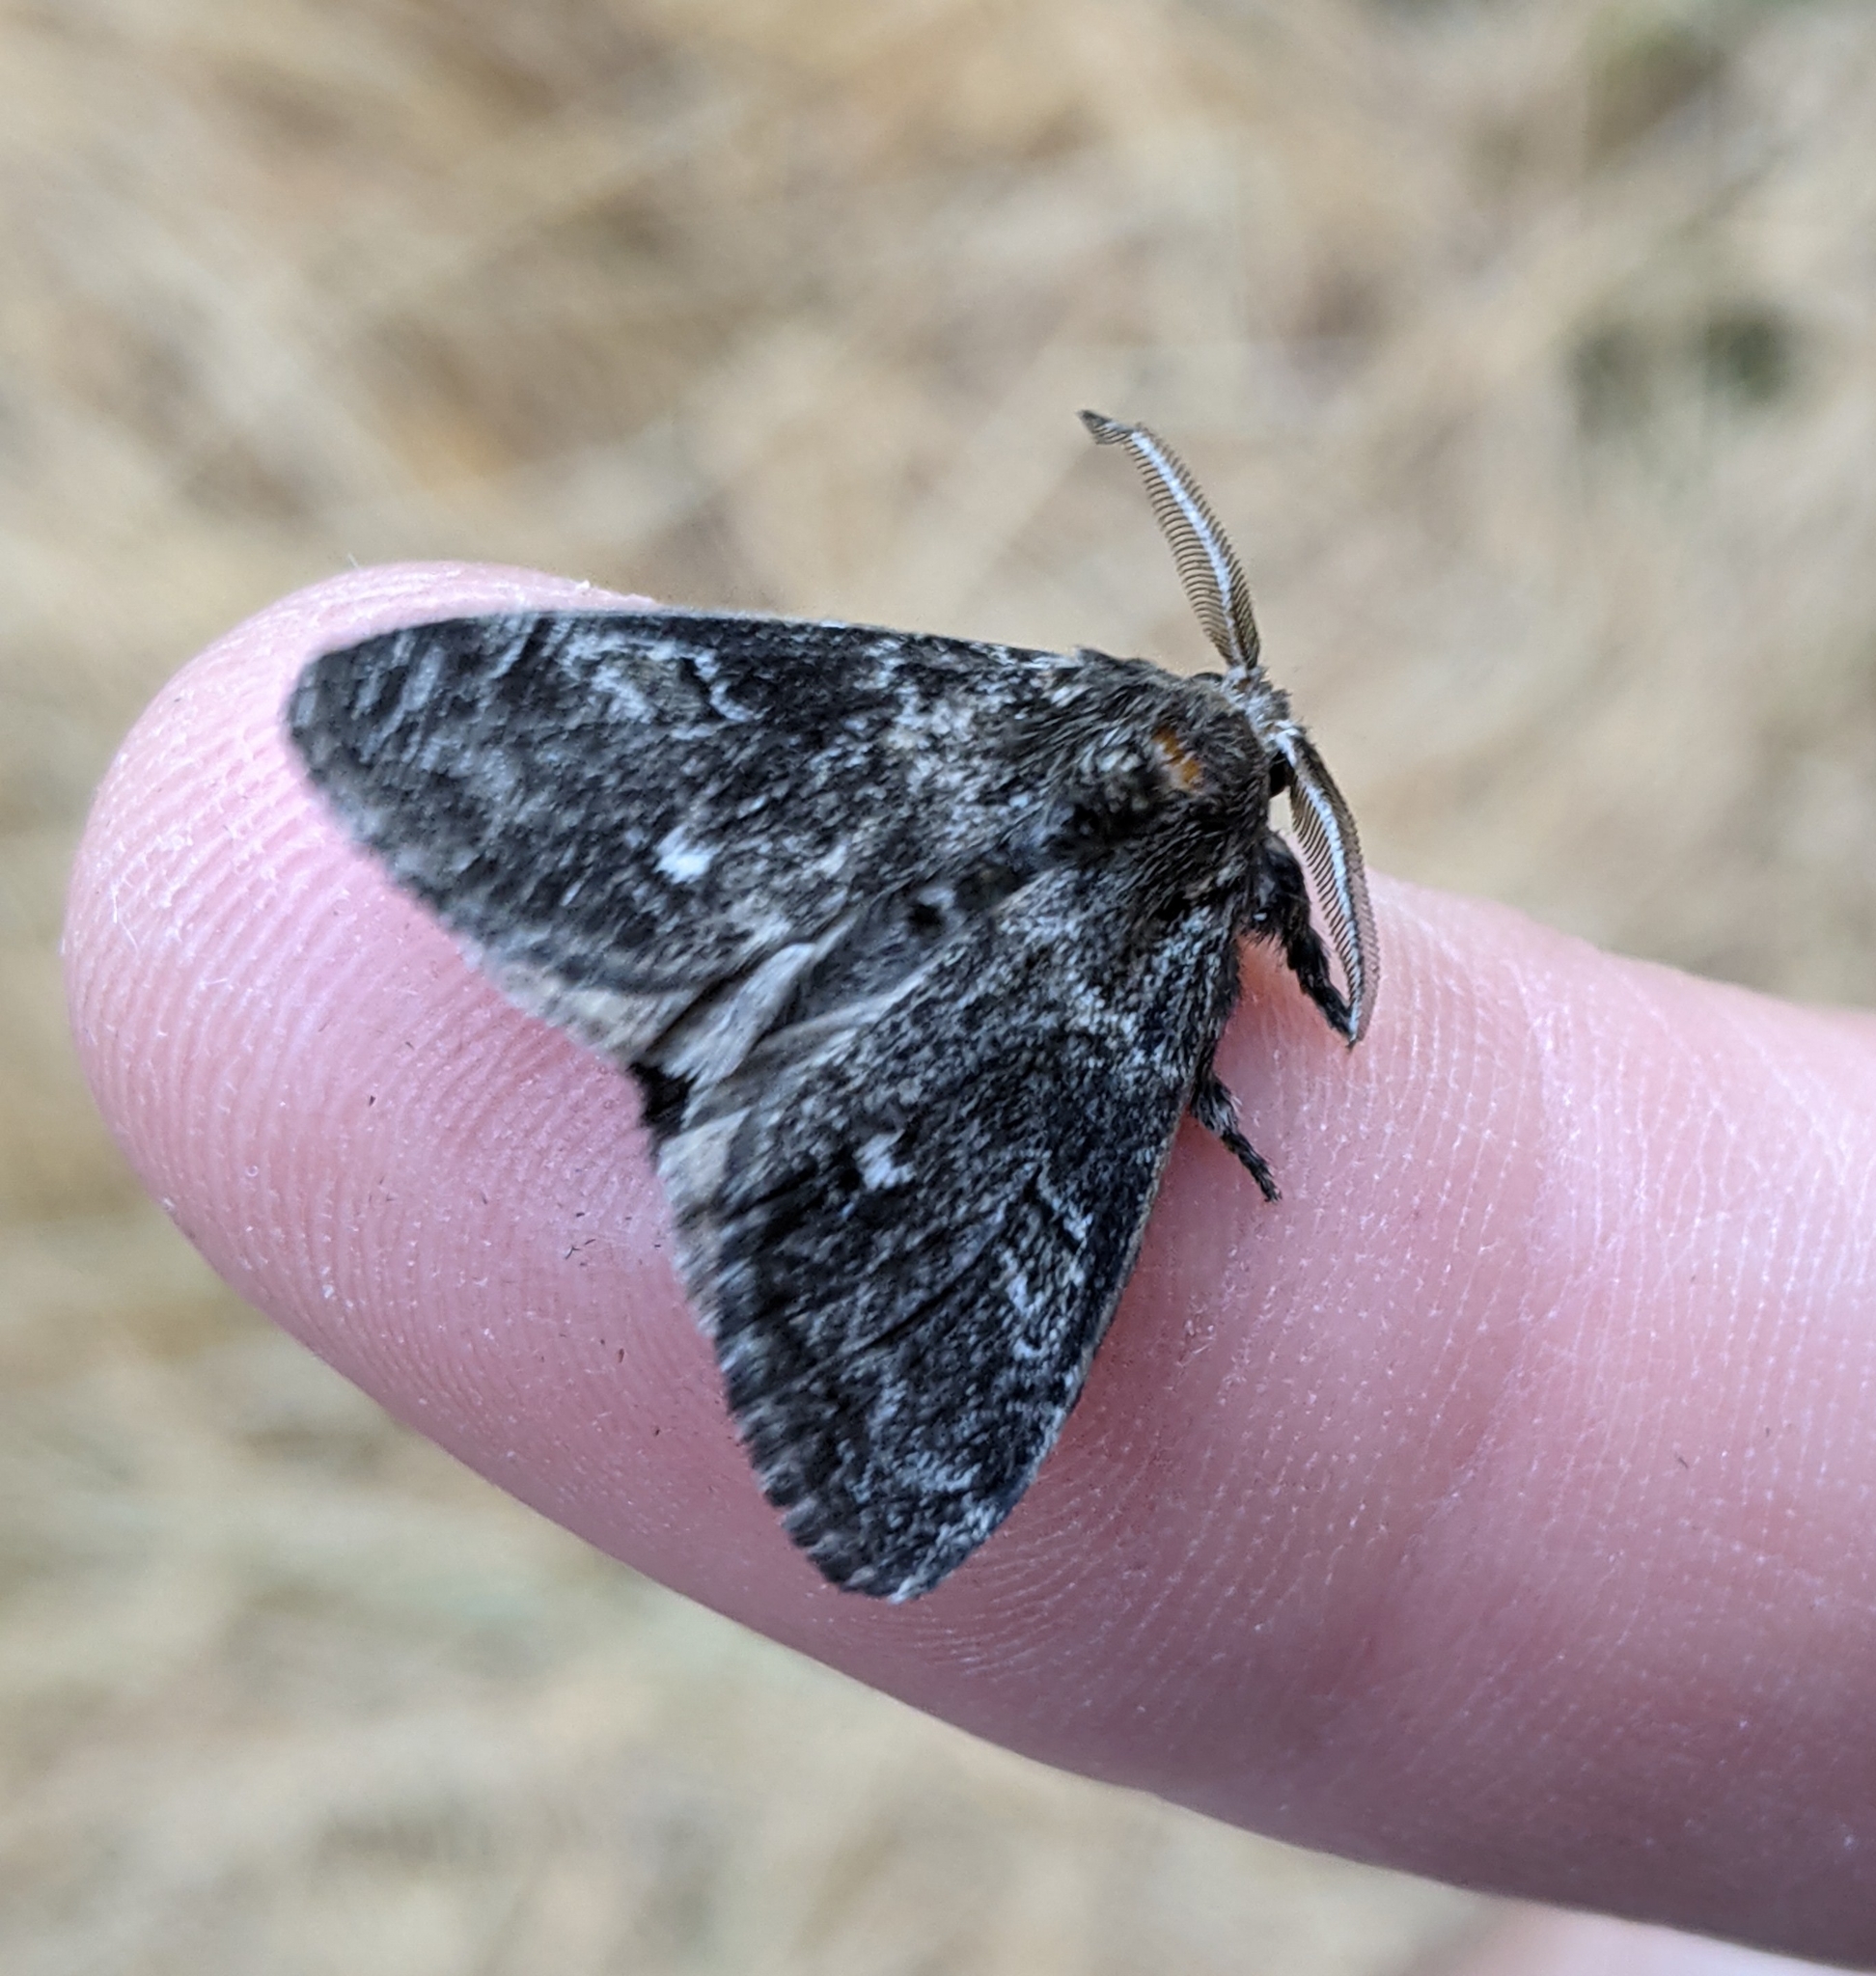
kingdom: Animalia
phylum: Arthropoda
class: Insecta
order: Lepidoptera
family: Erebidae
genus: Dasychira
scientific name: Dasychira grisefacta
